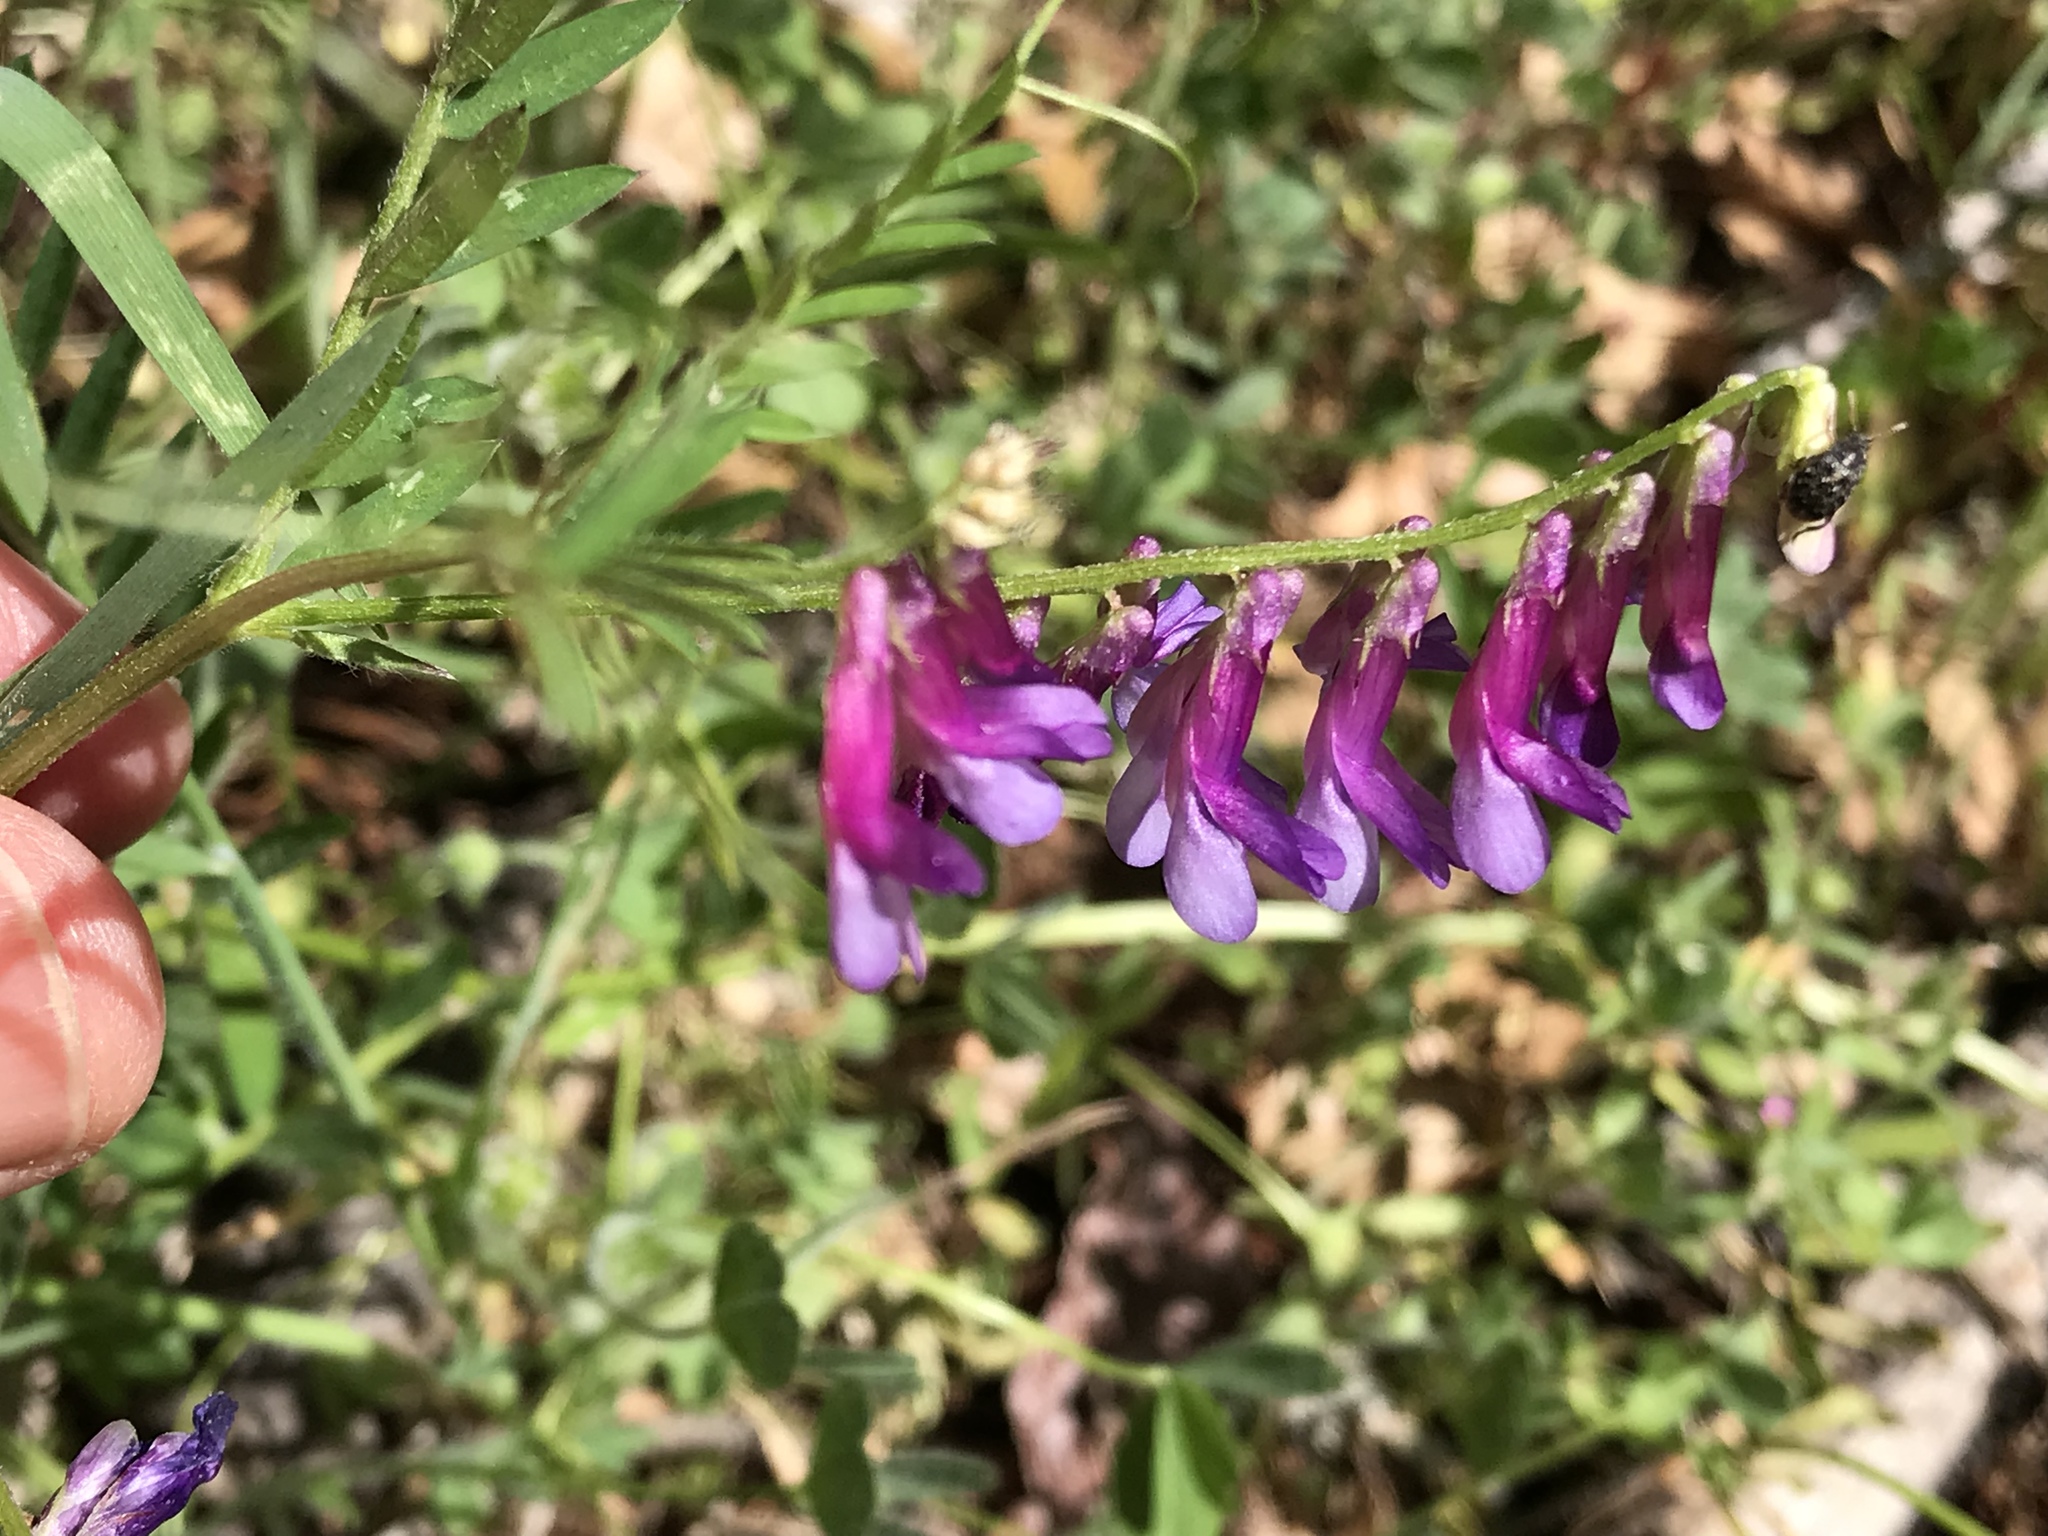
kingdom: Plantae
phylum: Tracheophyta
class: Magnoliopsida
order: Fabales
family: Fabaceae
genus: Vicia
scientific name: Vicia villosa
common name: Fodder vetch
